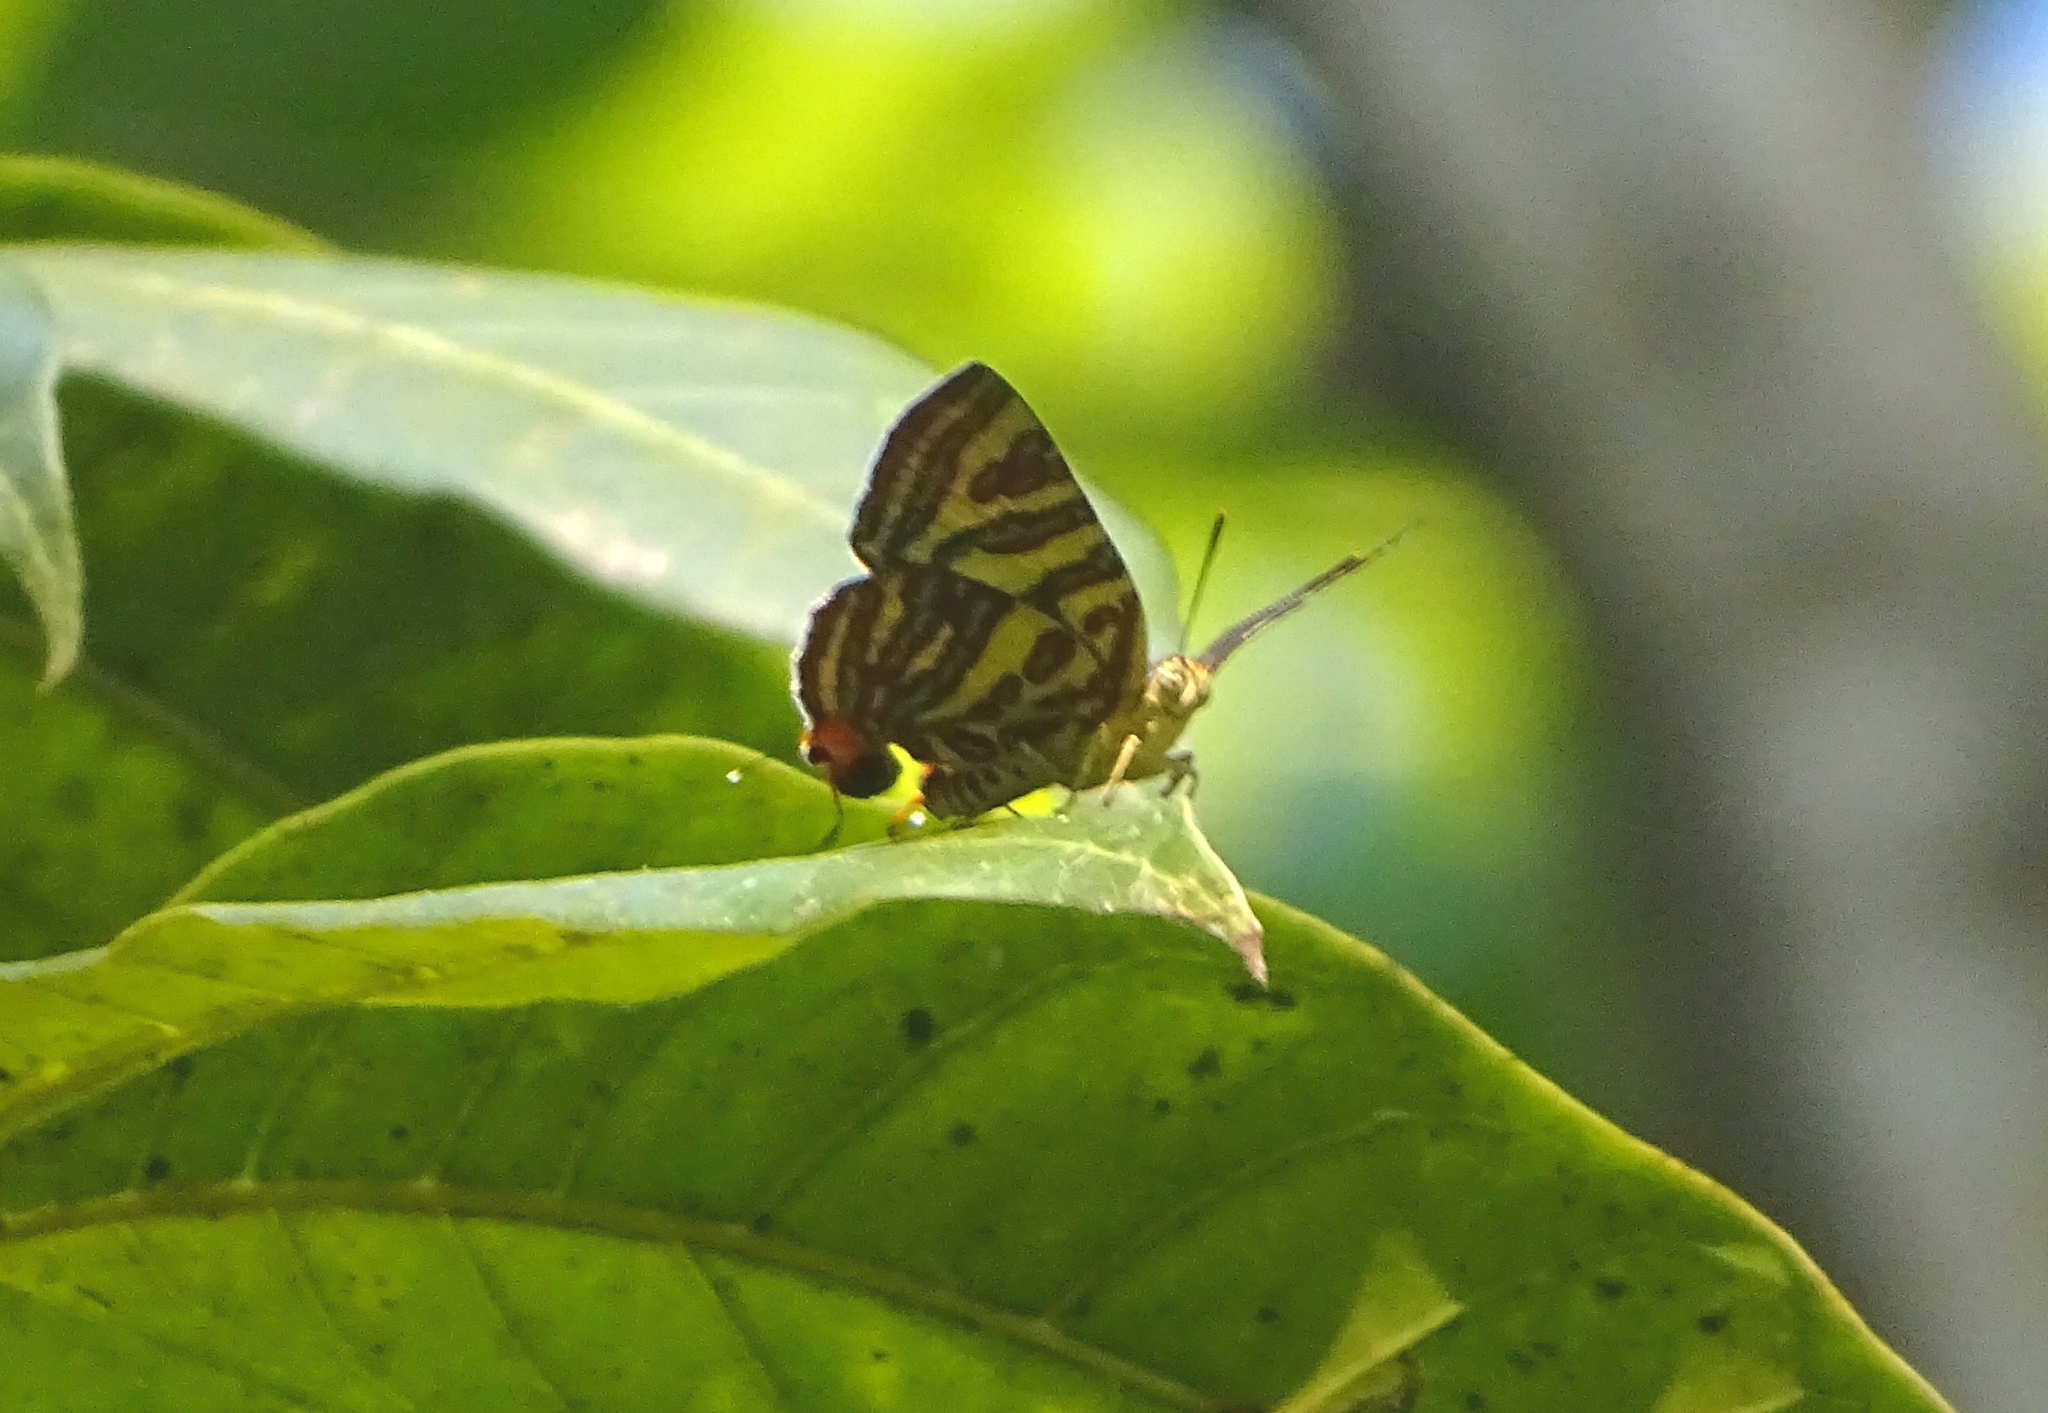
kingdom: Animalia
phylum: Arthropoda
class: Insecta
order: Lepidoptera
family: Lycaenidae
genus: Cigaritis
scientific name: Cigaritis lohita
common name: Long-banded silverline
